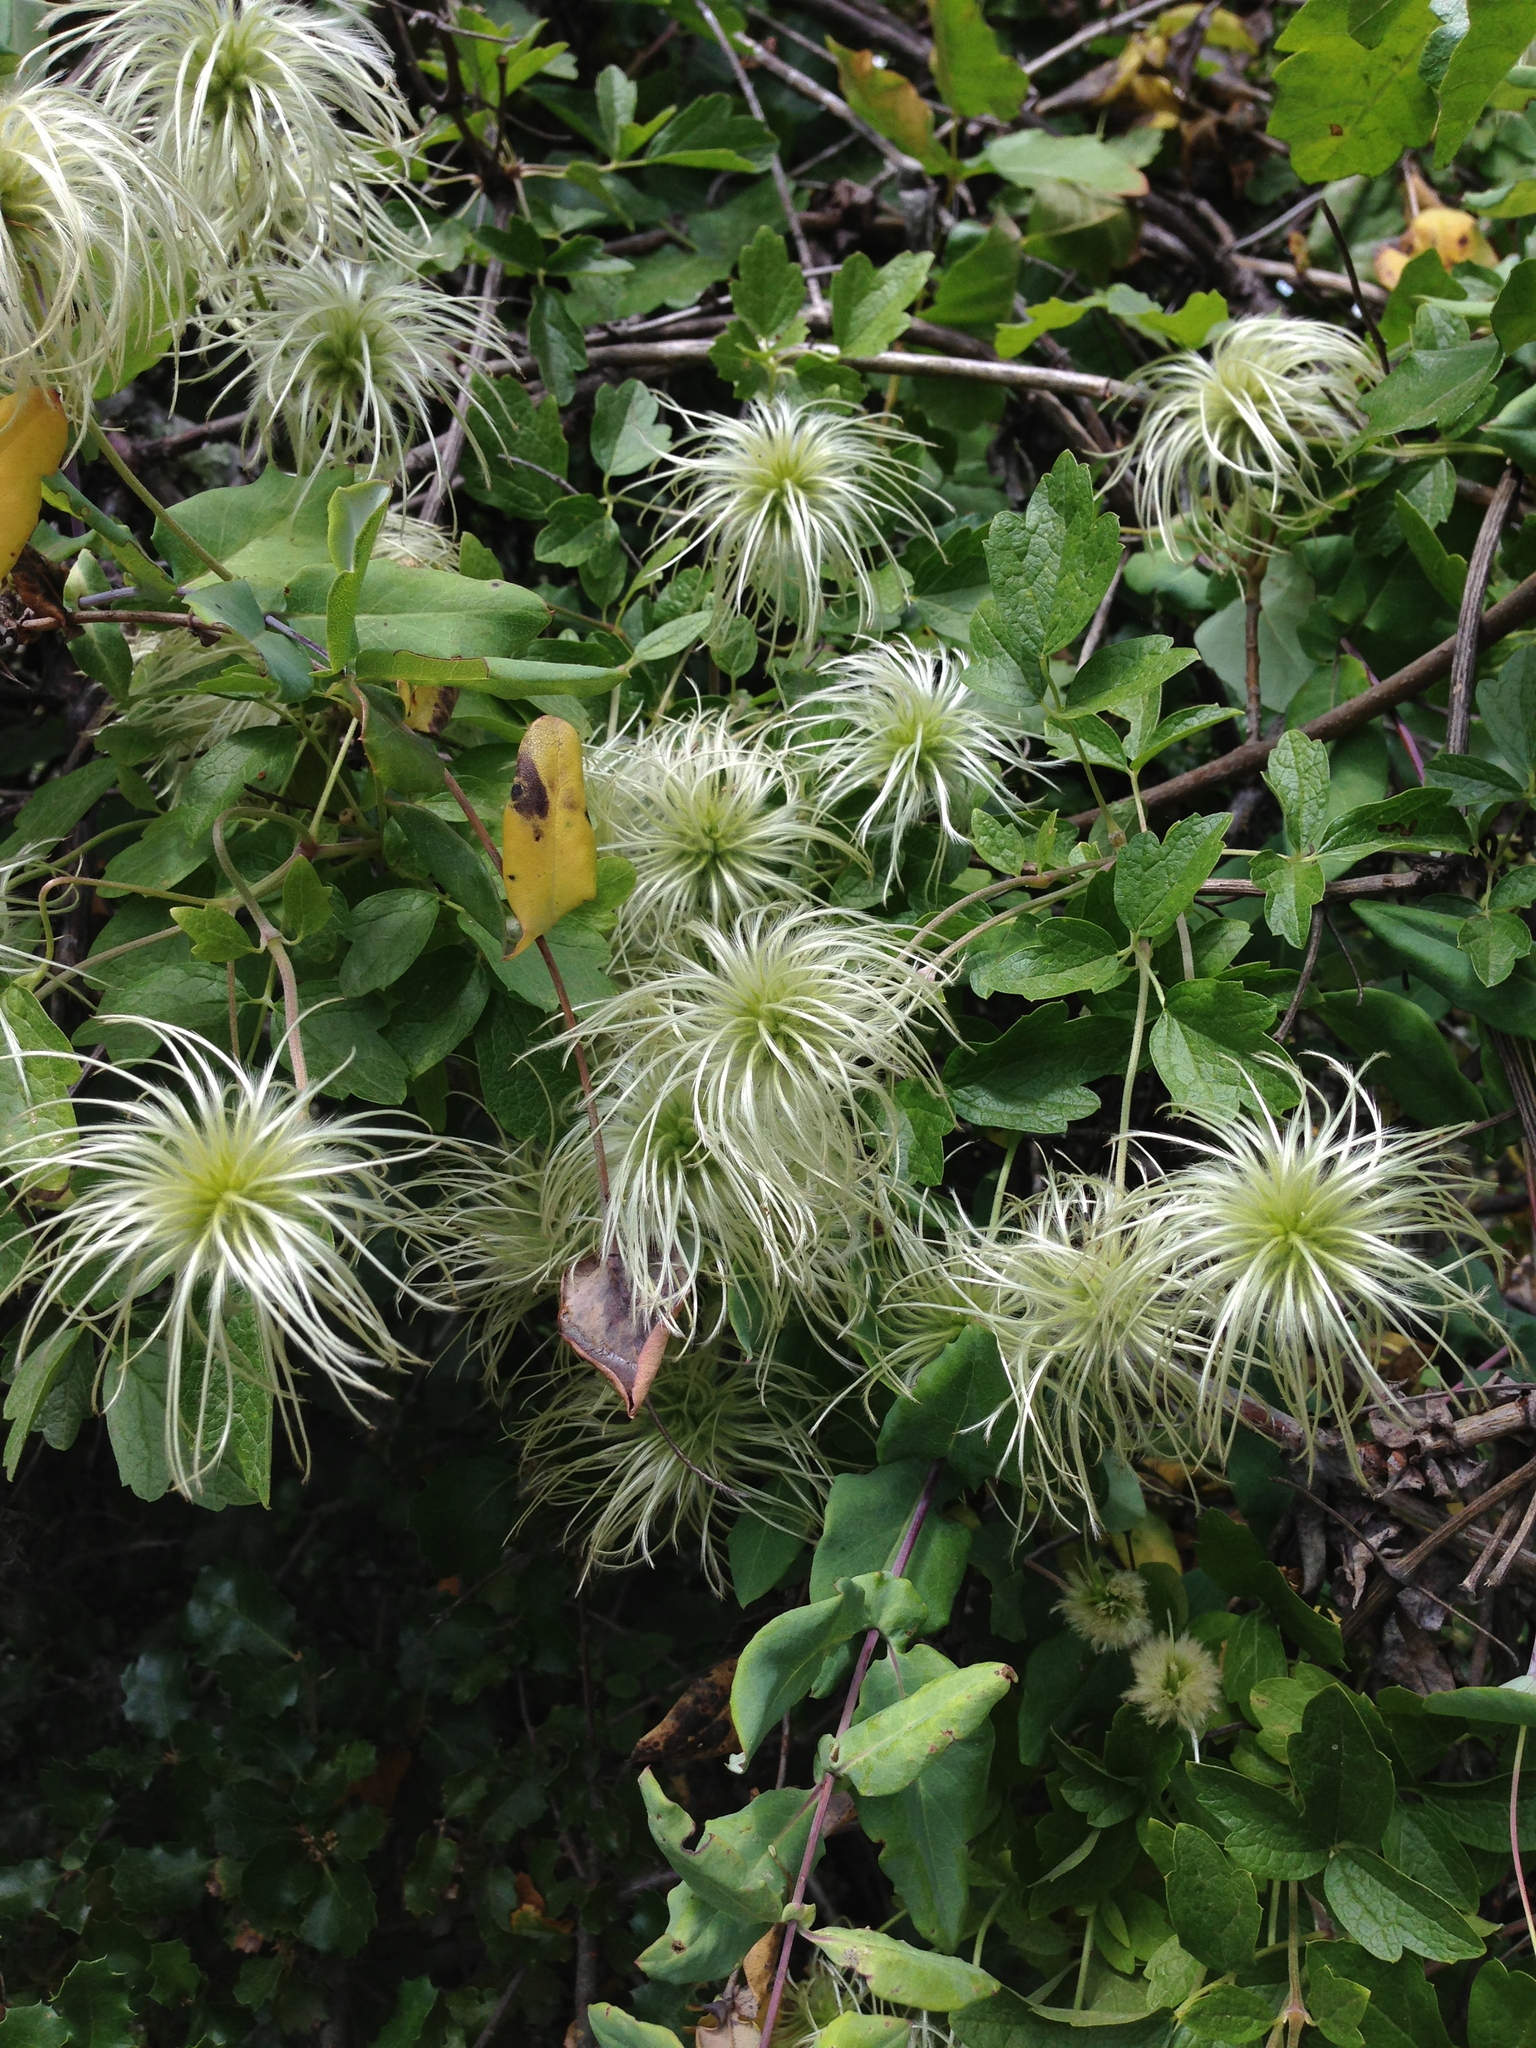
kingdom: Plantae
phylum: Tracheophyta
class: Magnoliopsida
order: Ranunculales
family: Ranunculaceae
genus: Clematis
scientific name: Clematis lasiantha
